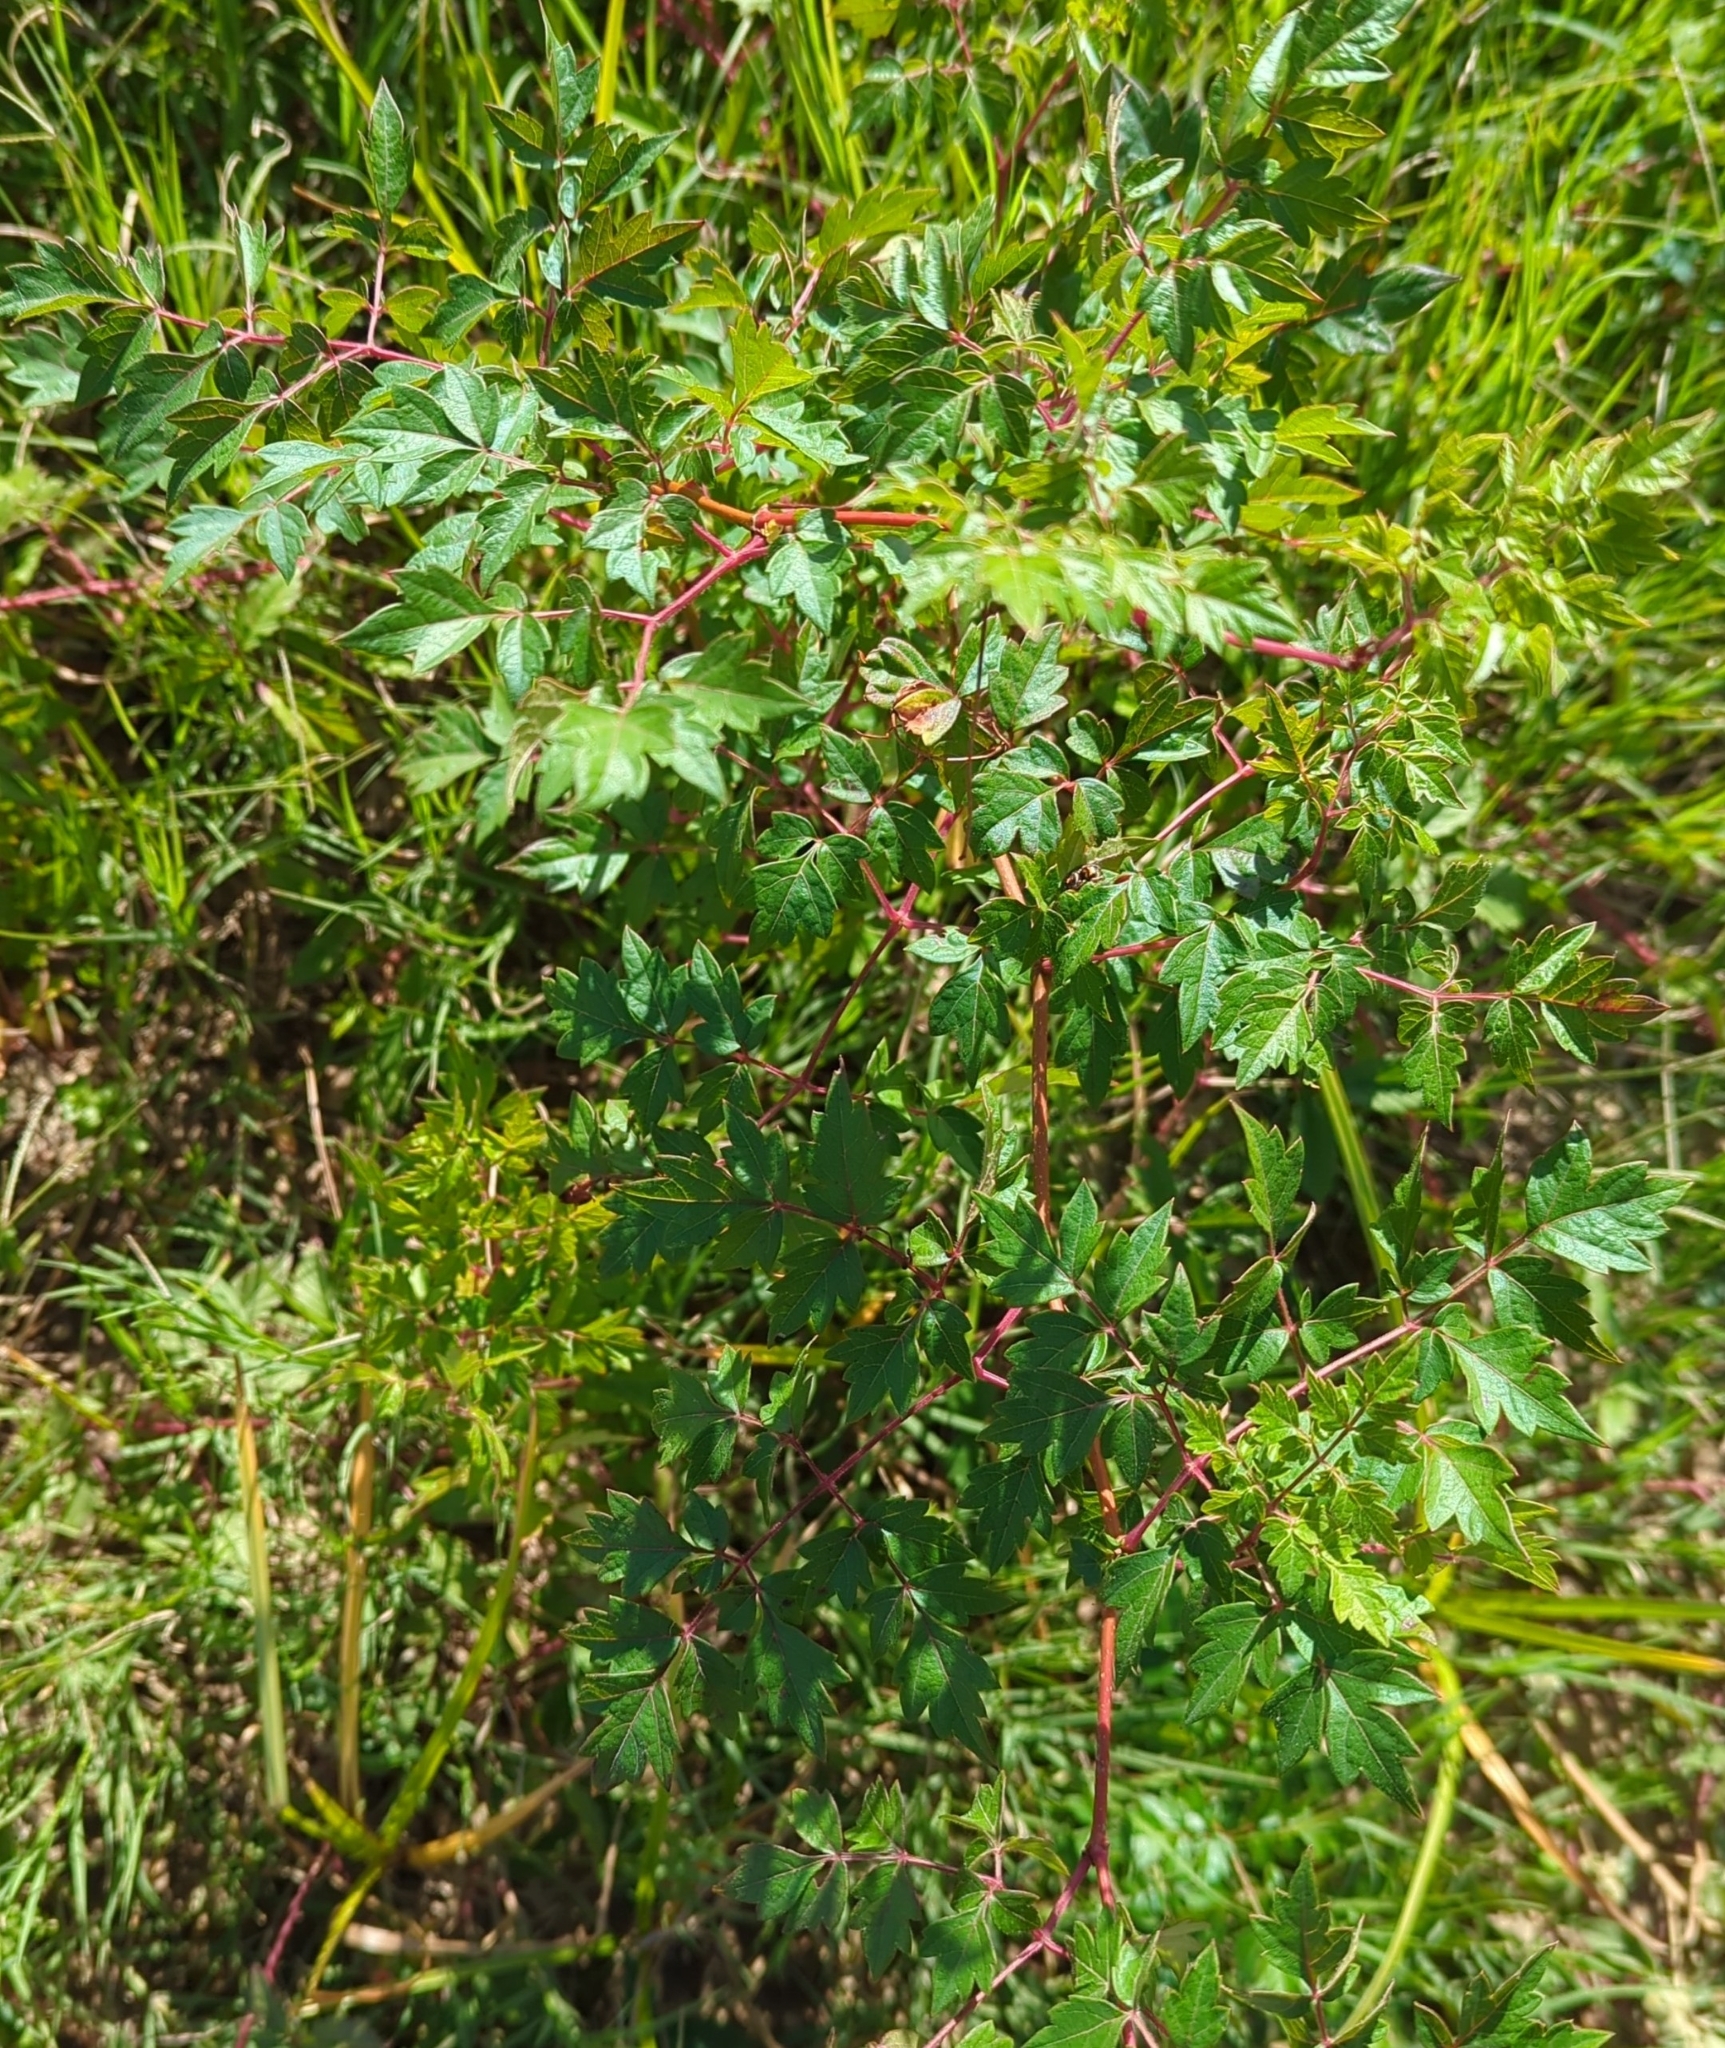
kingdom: Plantae
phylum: Tracheophyta
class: Magnoliopsida
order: Vitales
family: Vitaceae
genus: Nekemias
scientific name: Nekemias arborea
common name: Peppervine
